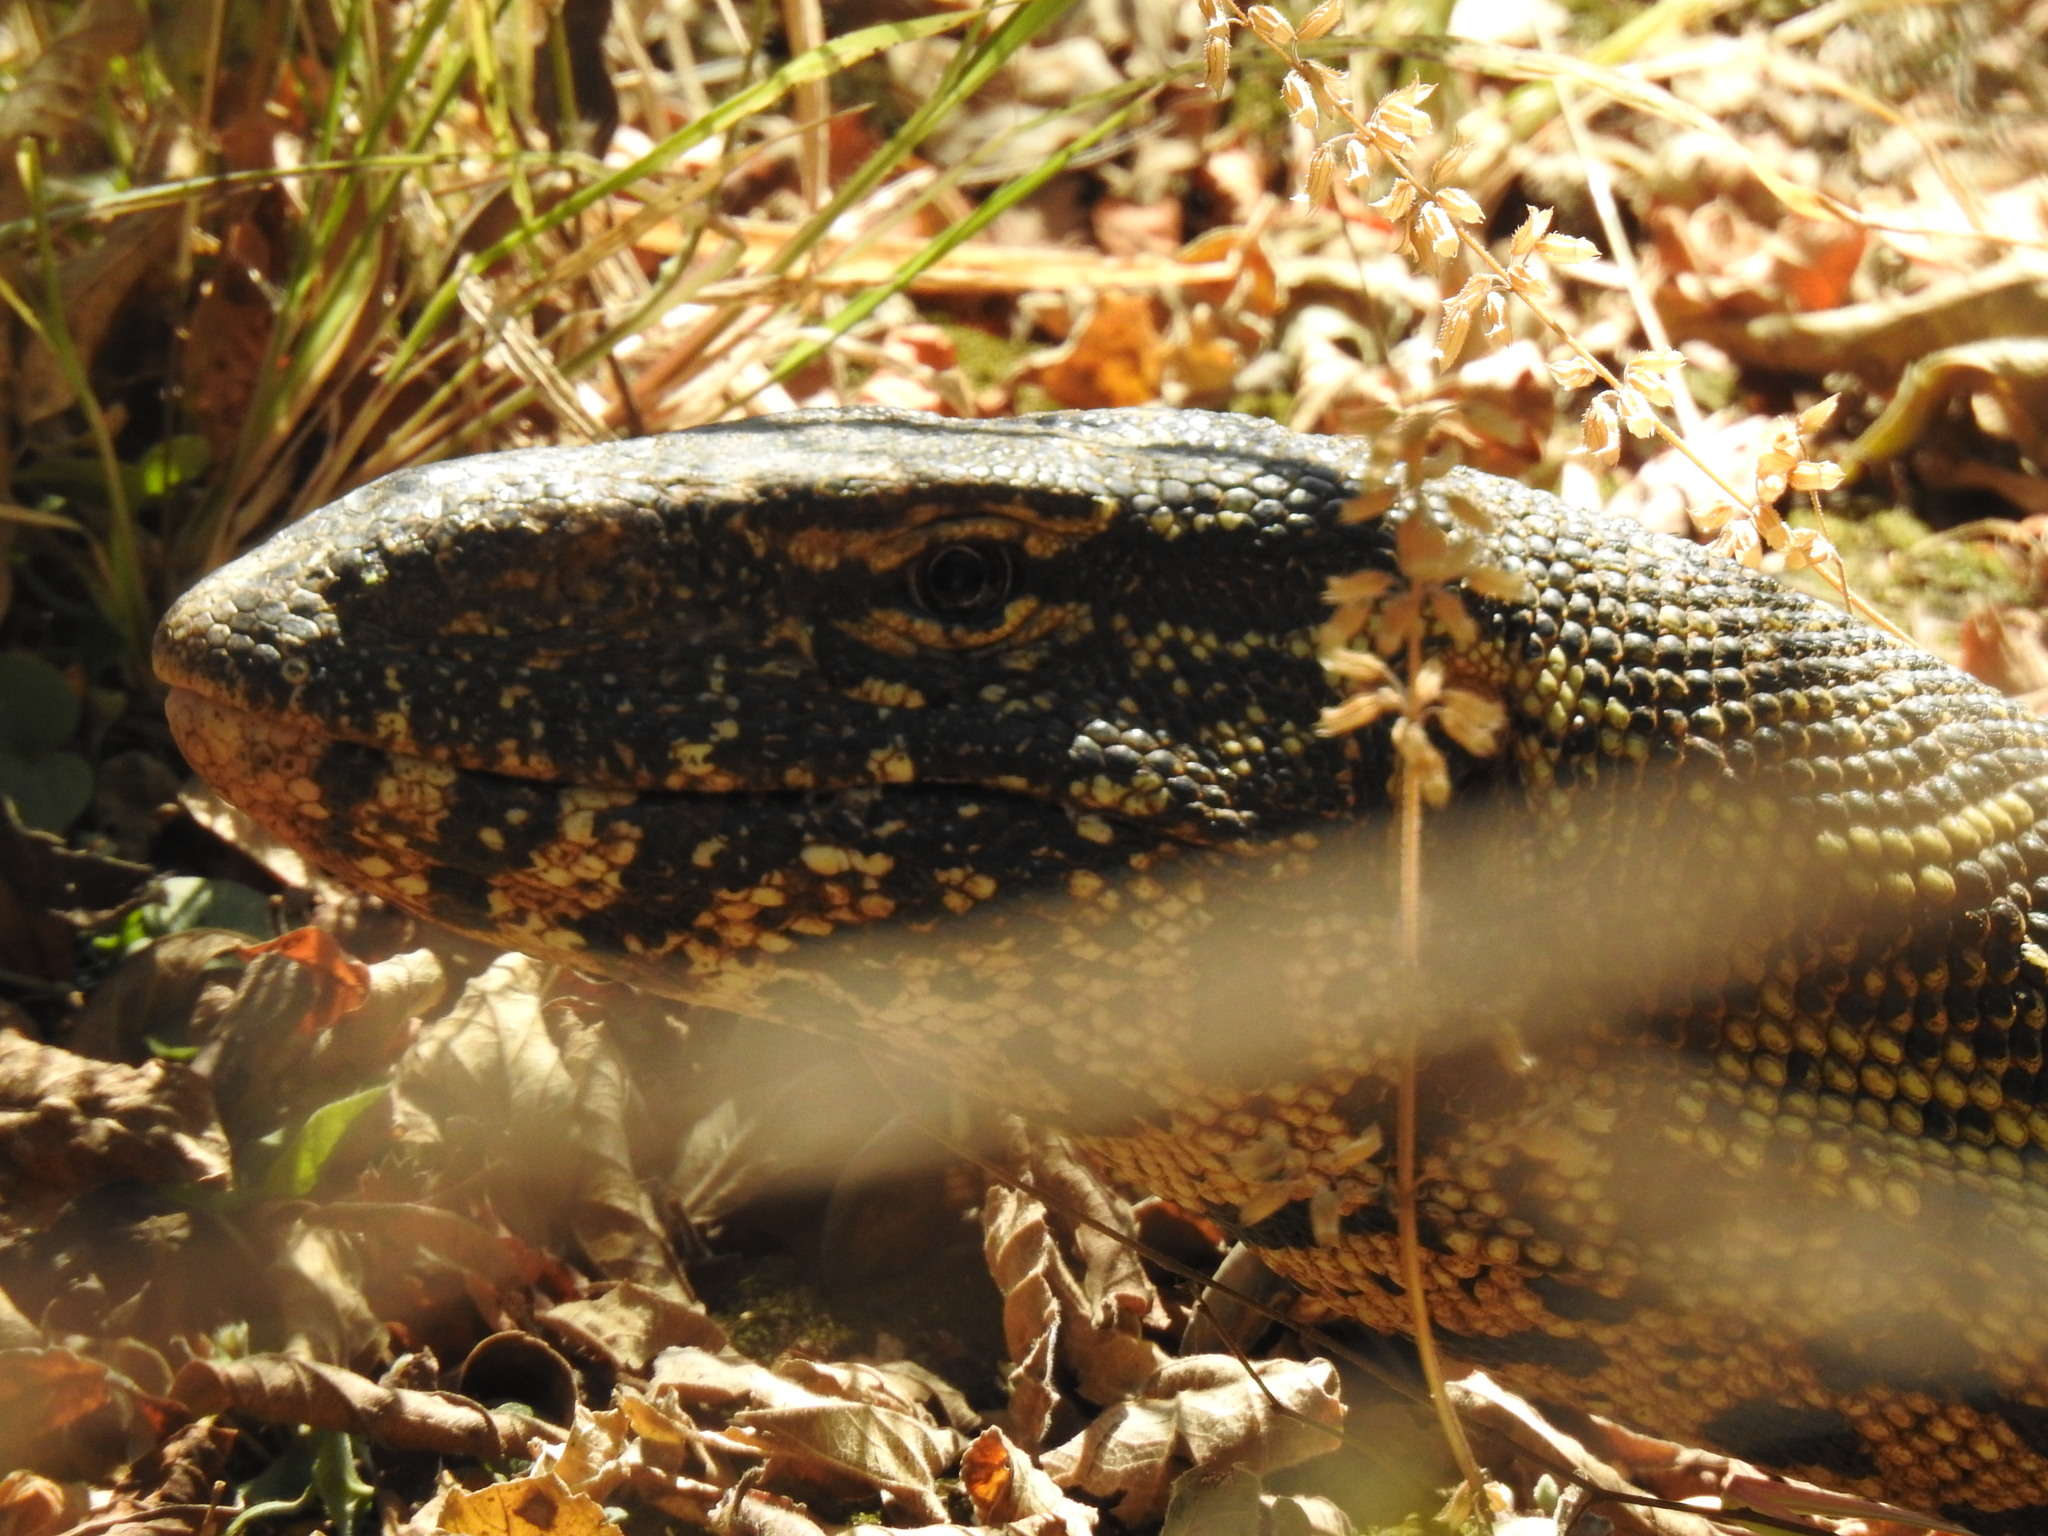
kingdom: Animalia
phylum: Chordata
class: Squamata
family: Varanidae
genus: Varanus
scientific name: Varanus niloticus
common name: Nile monitor
